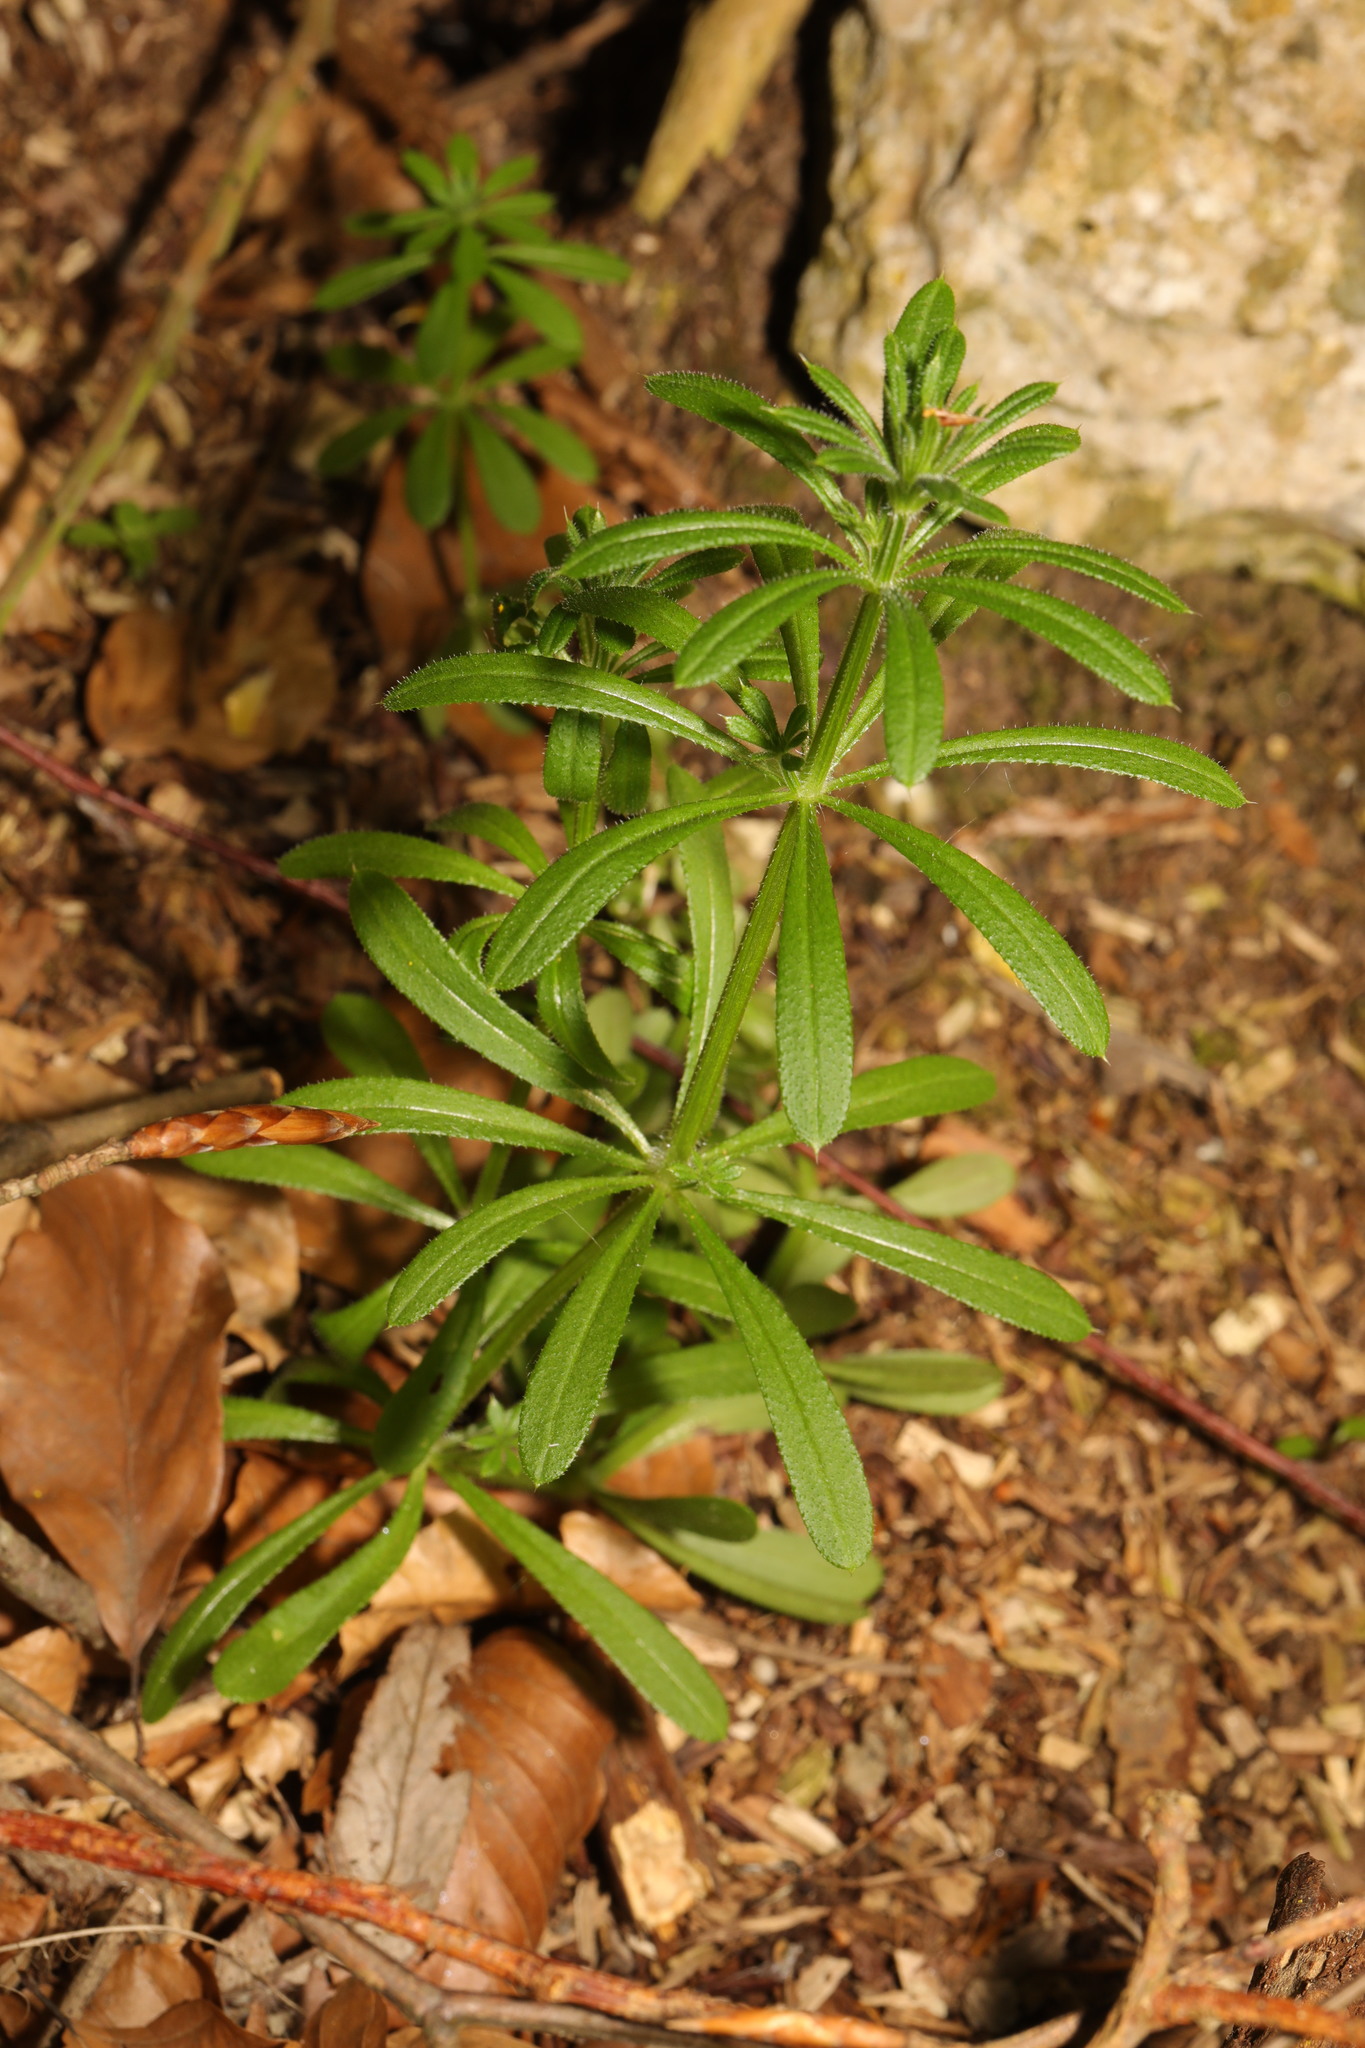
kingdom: Plantae
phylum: Tracheophyta
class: Magnoliopsida
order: Gentianales
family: Rubiaceae
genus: Galium
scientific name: Galium aparine
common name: Cleavers
